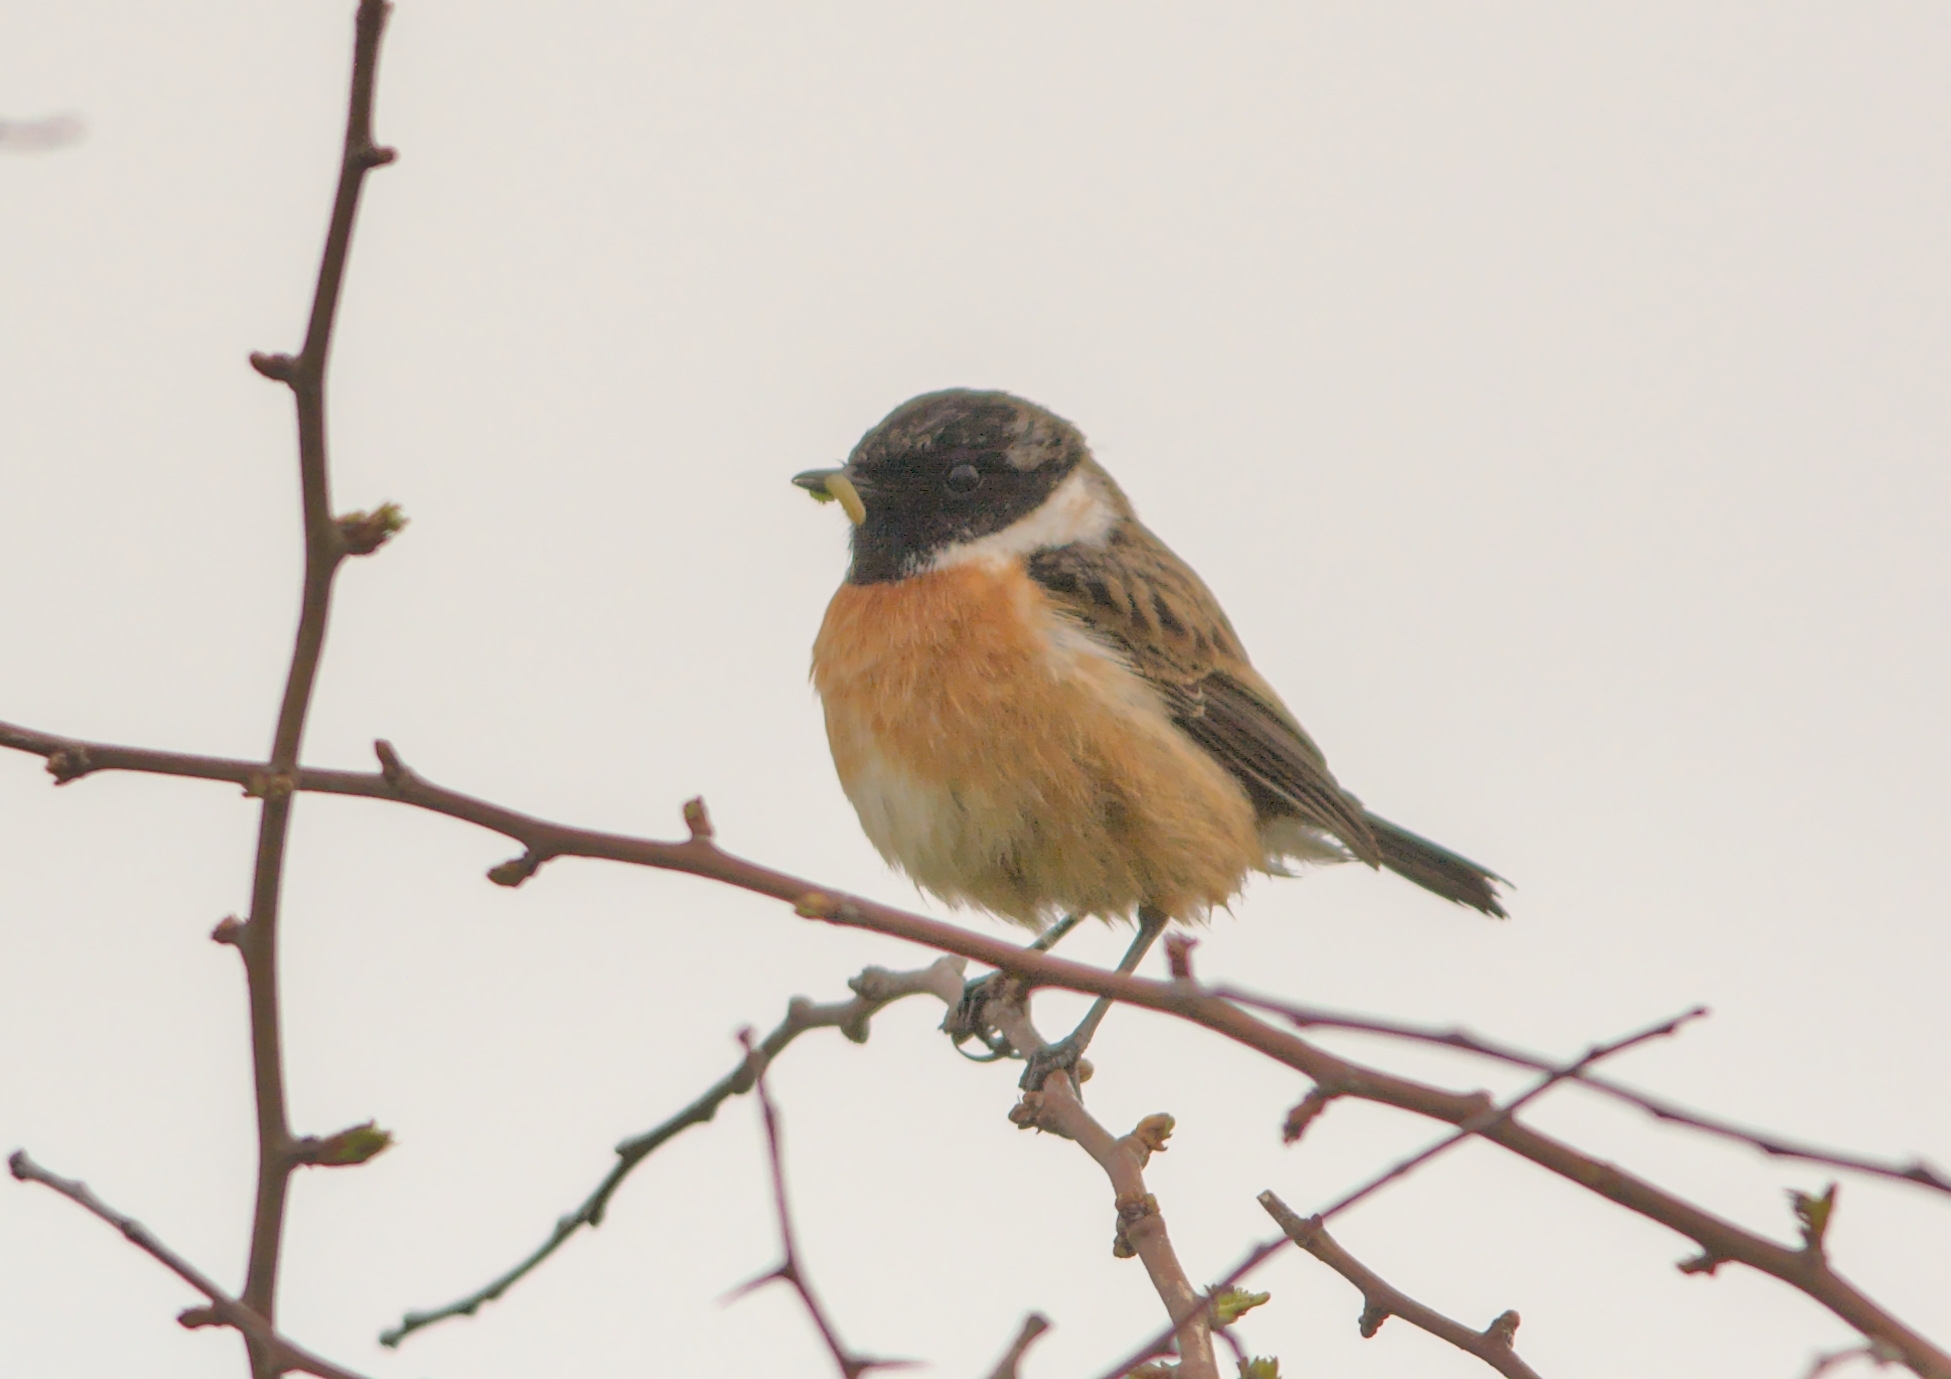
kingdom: Animalia
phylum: Chordata
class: Aves
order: Passeriformes
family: Muscicapidae
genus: Saxicola
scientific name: Saxicola rubicola
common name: European stonechat
